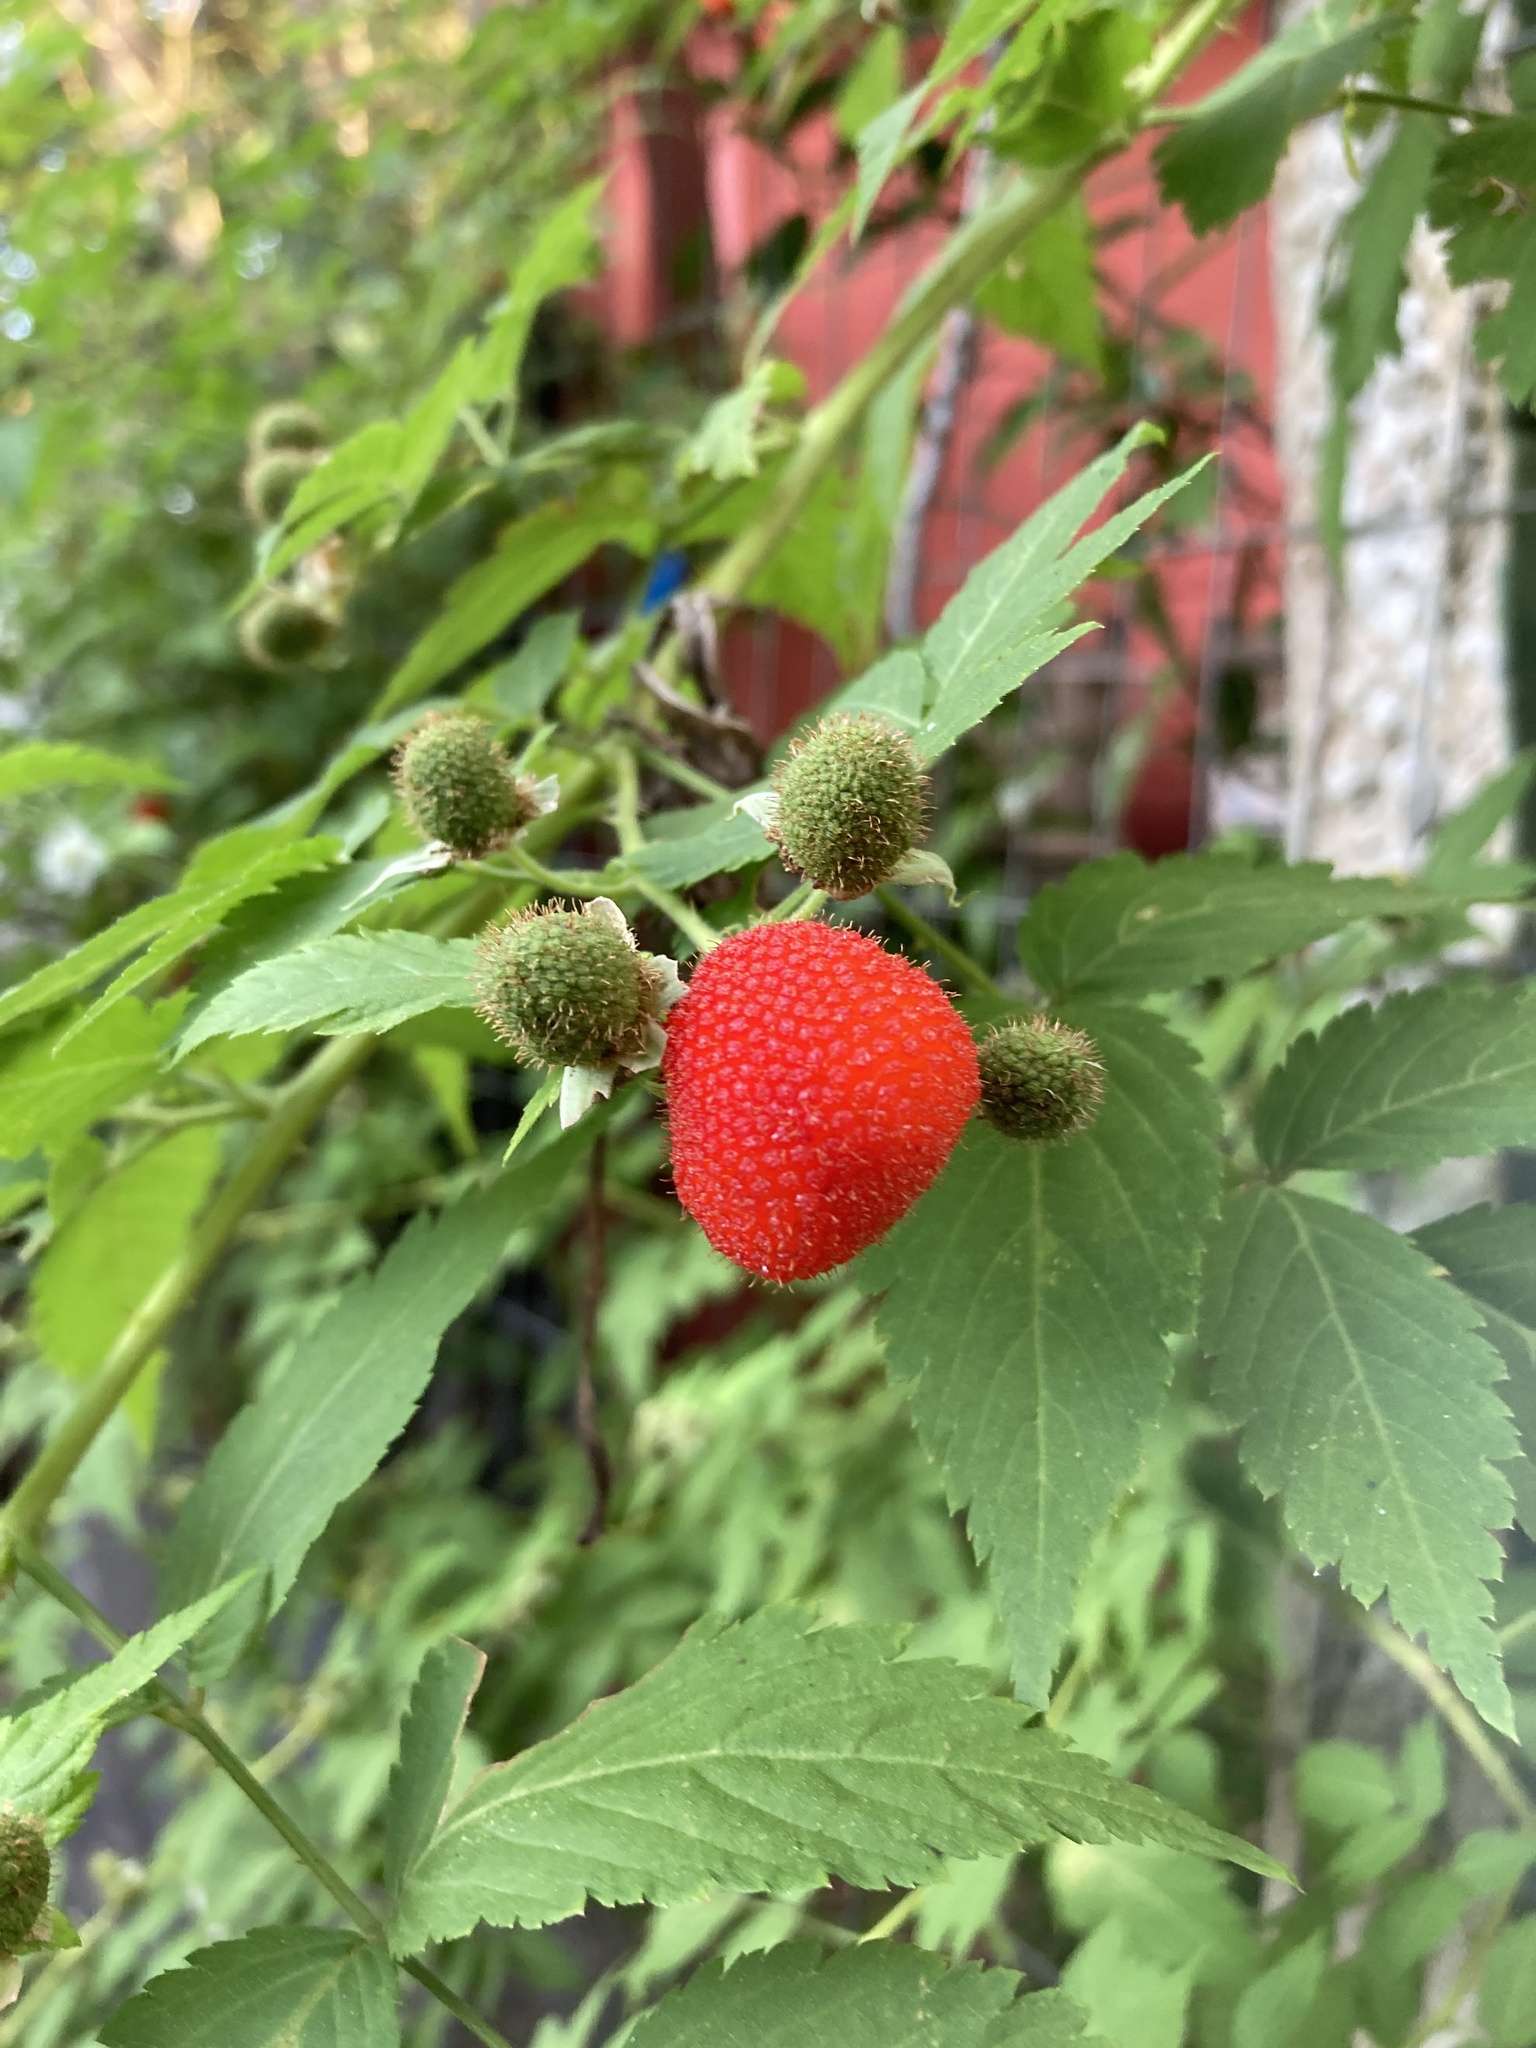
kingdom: Plantae
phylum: Tracheophyta
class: Magnoliopsida
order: Rosales
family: Rosaceae
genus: Rubus
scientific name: Rubus rosifolius
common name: Roseleaf raspberry
